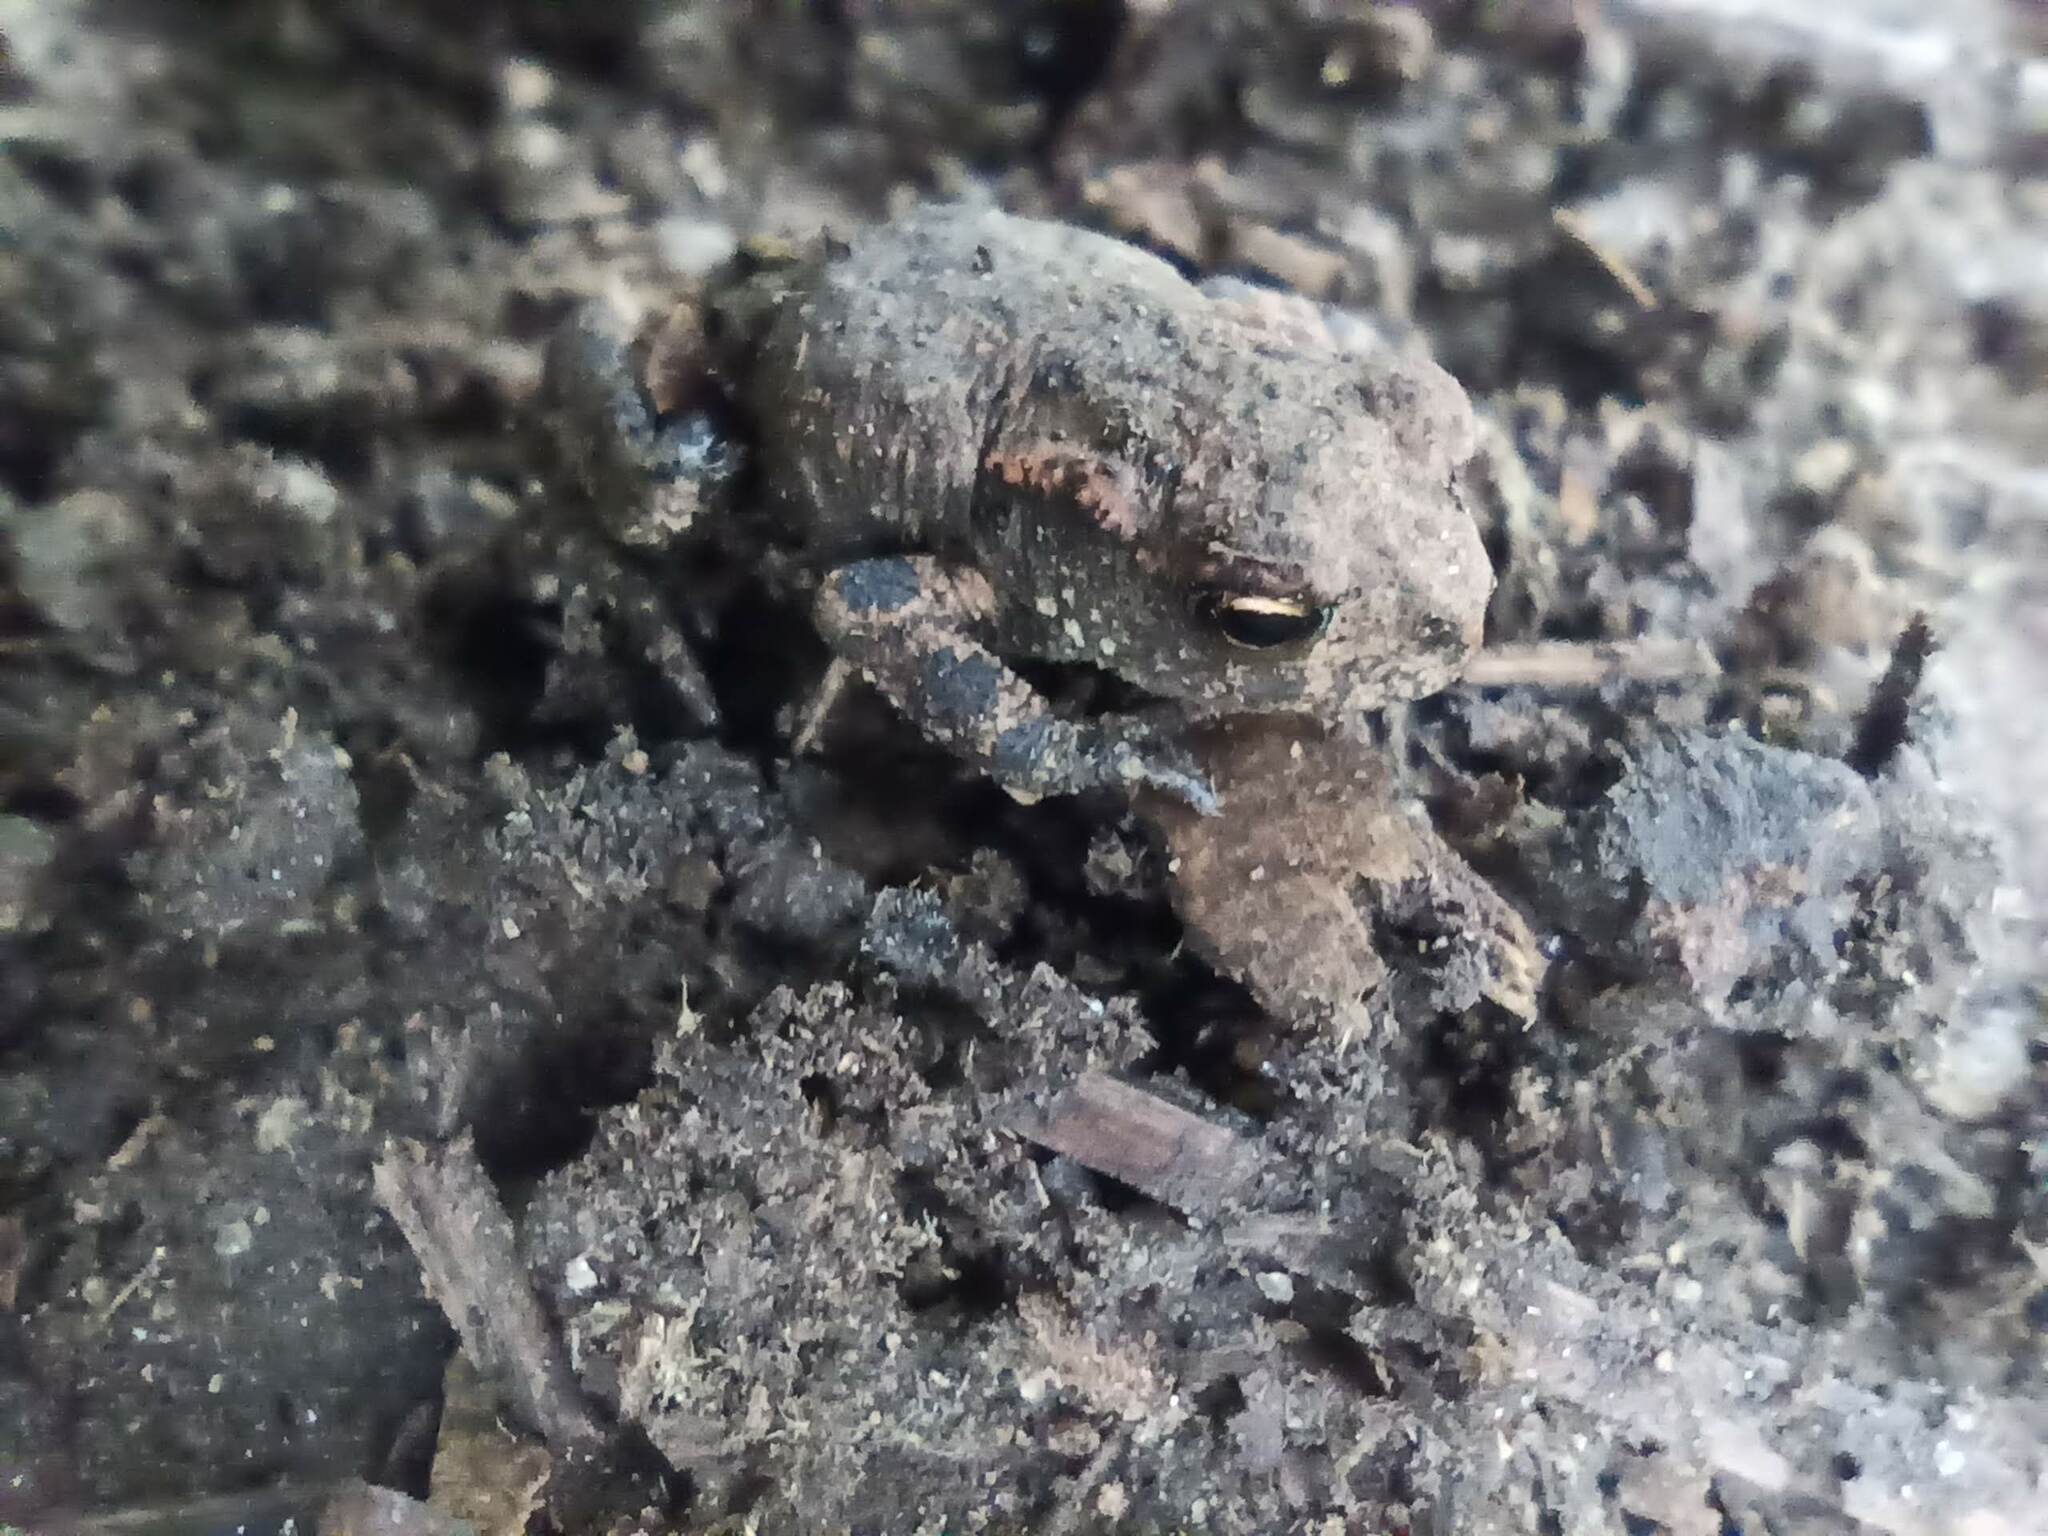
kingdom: Animalia
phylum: Chordata
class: Amphibia
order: Anura
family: Bufonidae
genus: Bufo
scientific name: Bufo spinosus
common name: Western common toad
